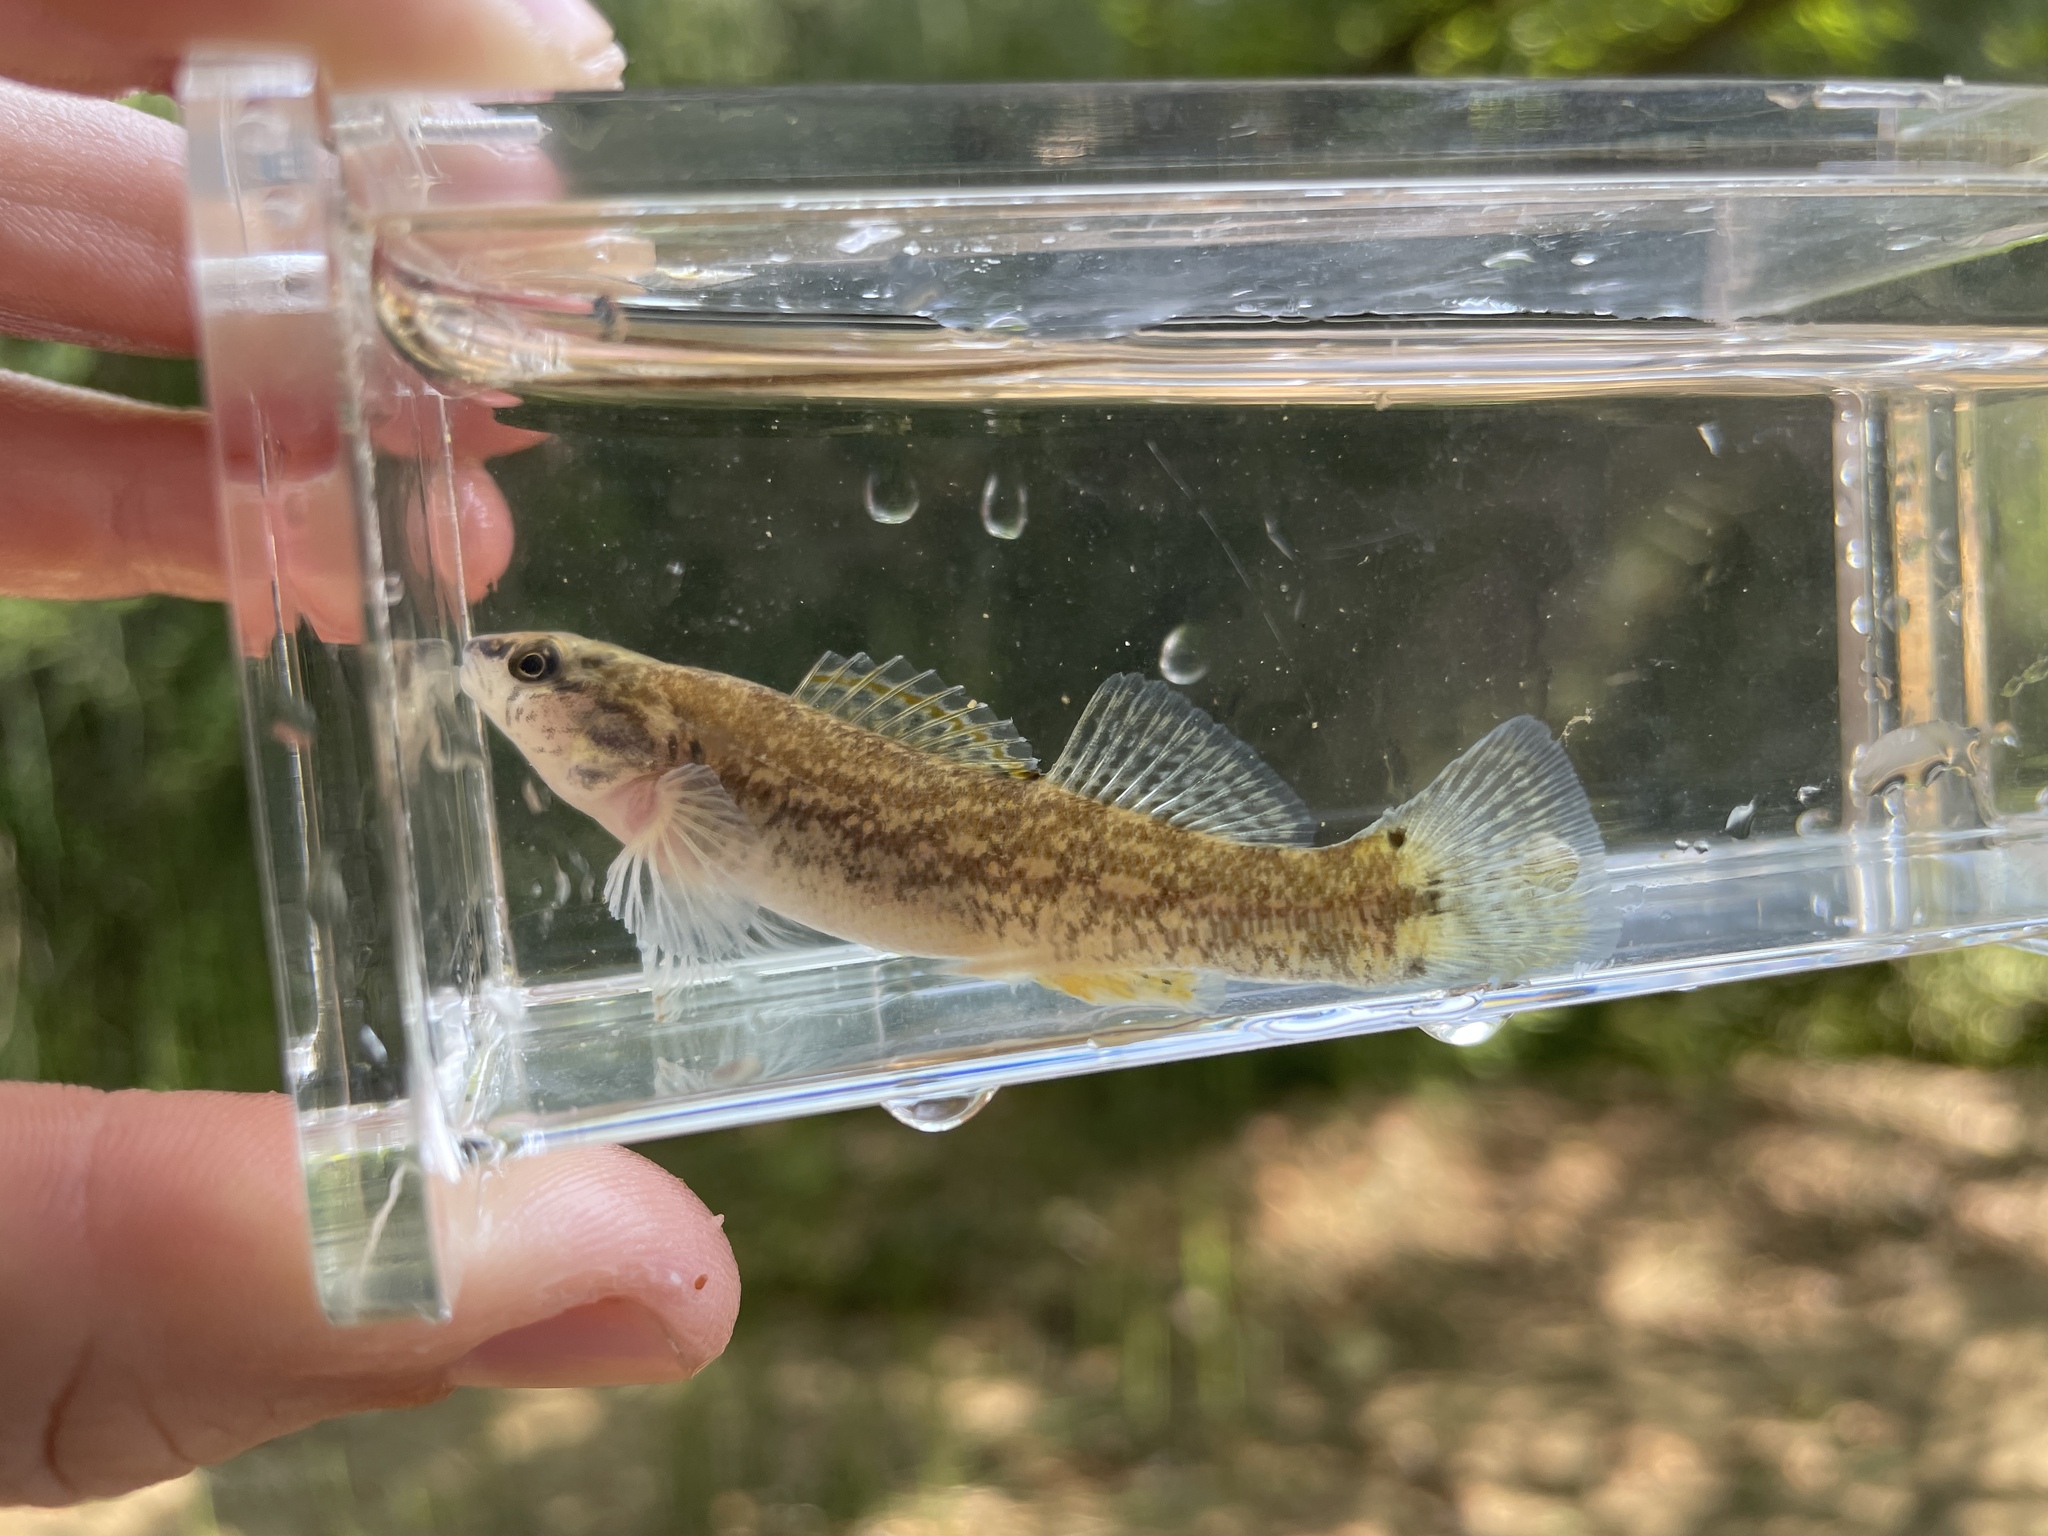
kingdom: Animalia
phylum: Chordata
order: Perciformes
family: Percidae
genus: Etheostoma
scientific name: Etheostoma artesiae
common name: Redspot darter
